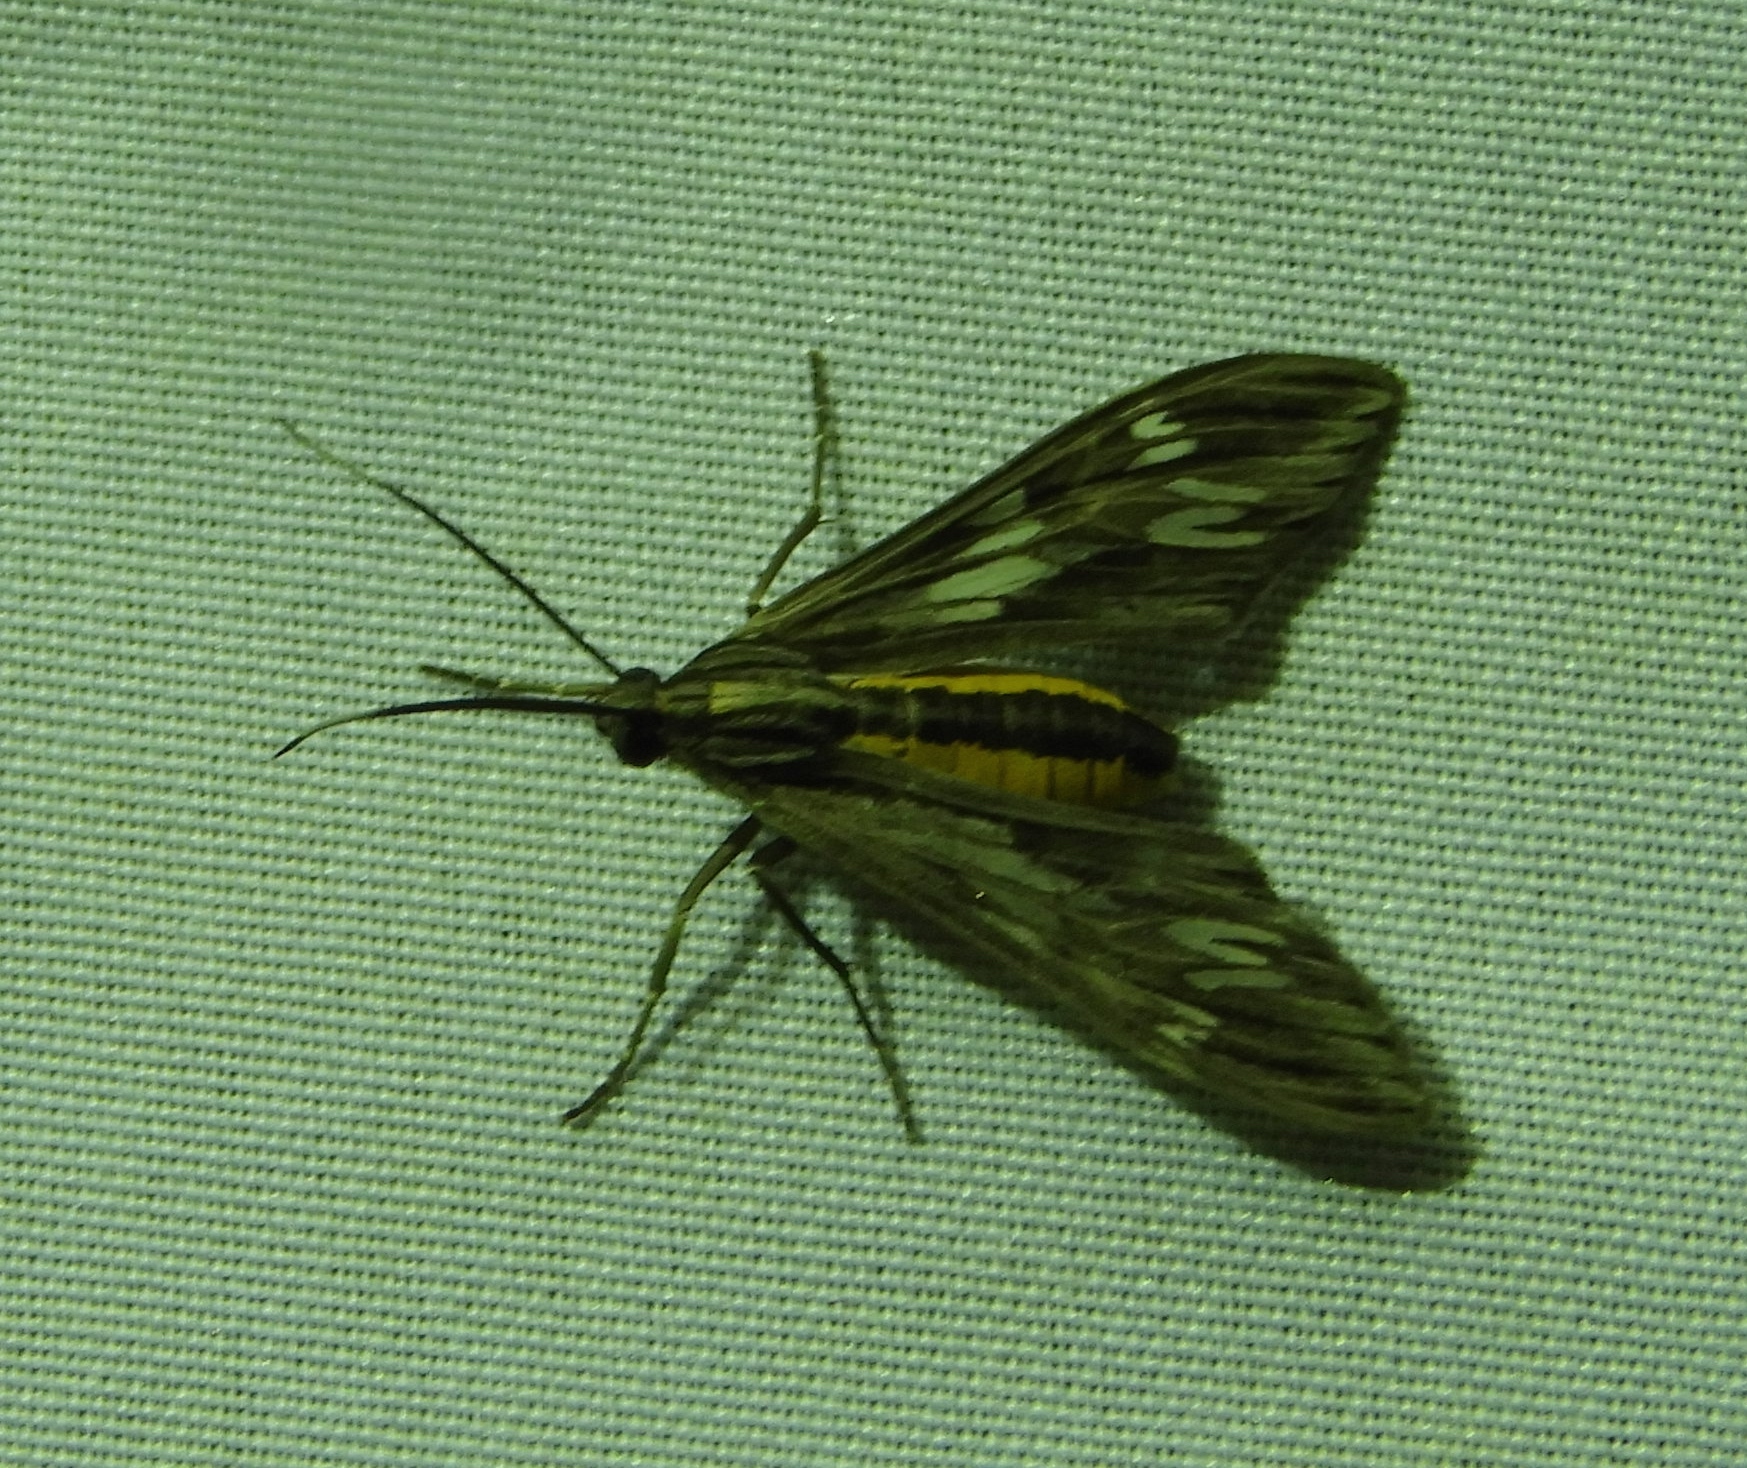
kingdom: Animalia
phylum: Arthropoda
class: Insecta
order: Lepidoptera
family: Erebidae
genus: Psilopleura
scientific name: Psilopleura vittata
